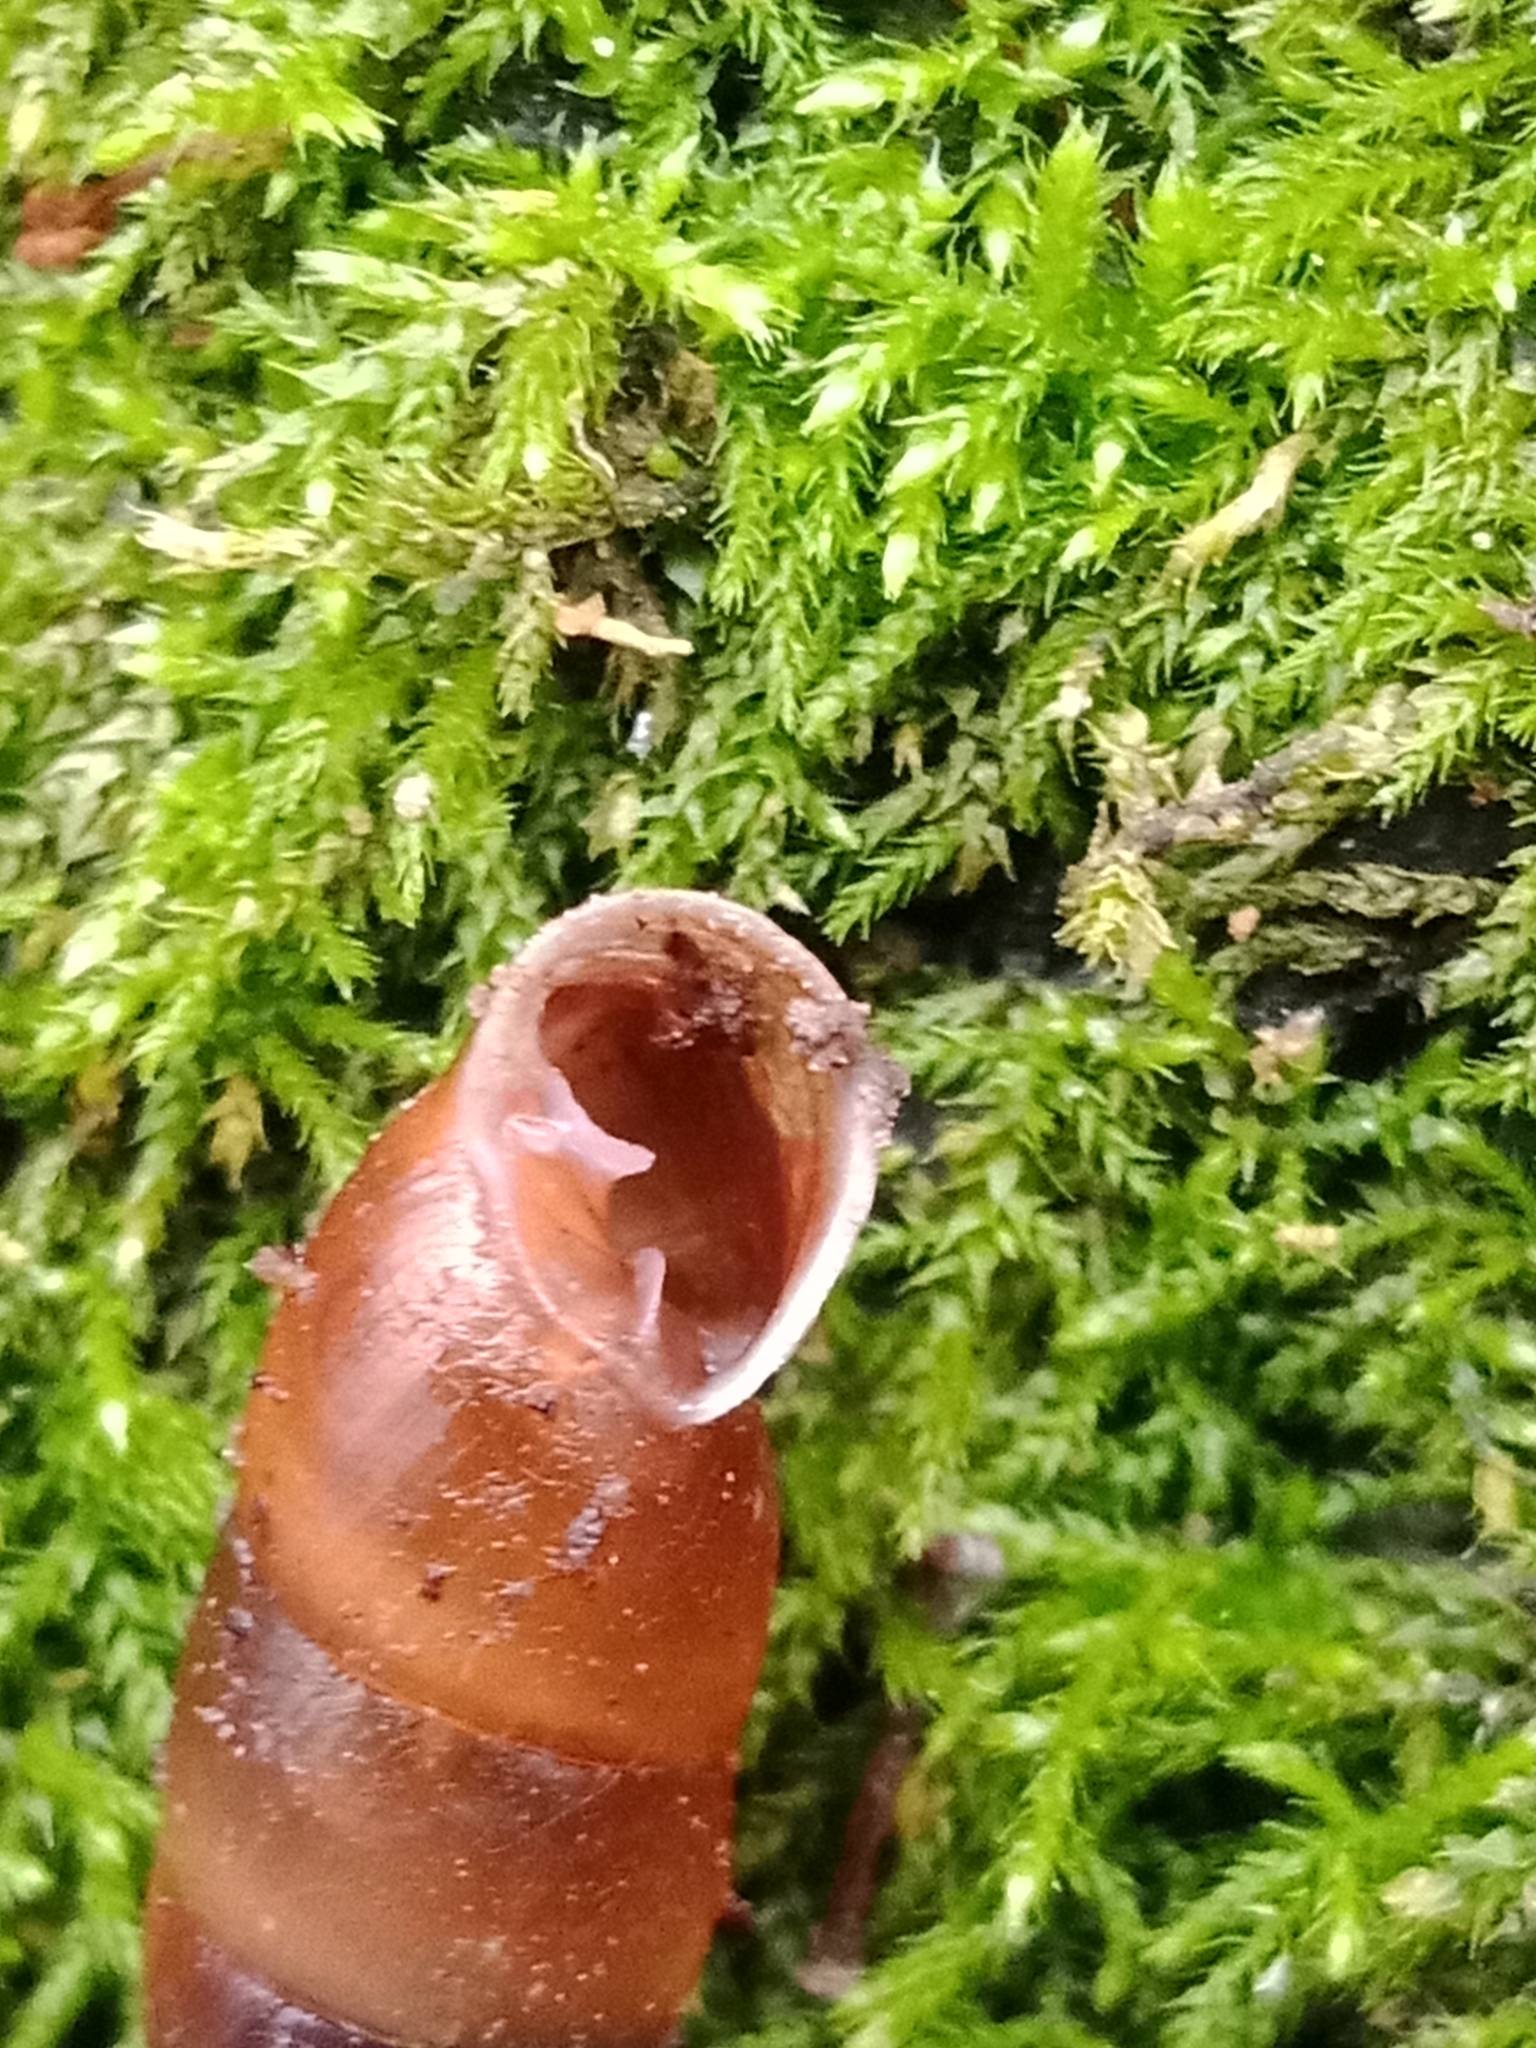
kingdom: Animalia
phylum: Mollusca
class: Gastropoda
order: Stylommatophora
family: Clausiliidae
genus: Cochlodina
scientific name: Cochlodina laminata
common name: Plaited door snail
